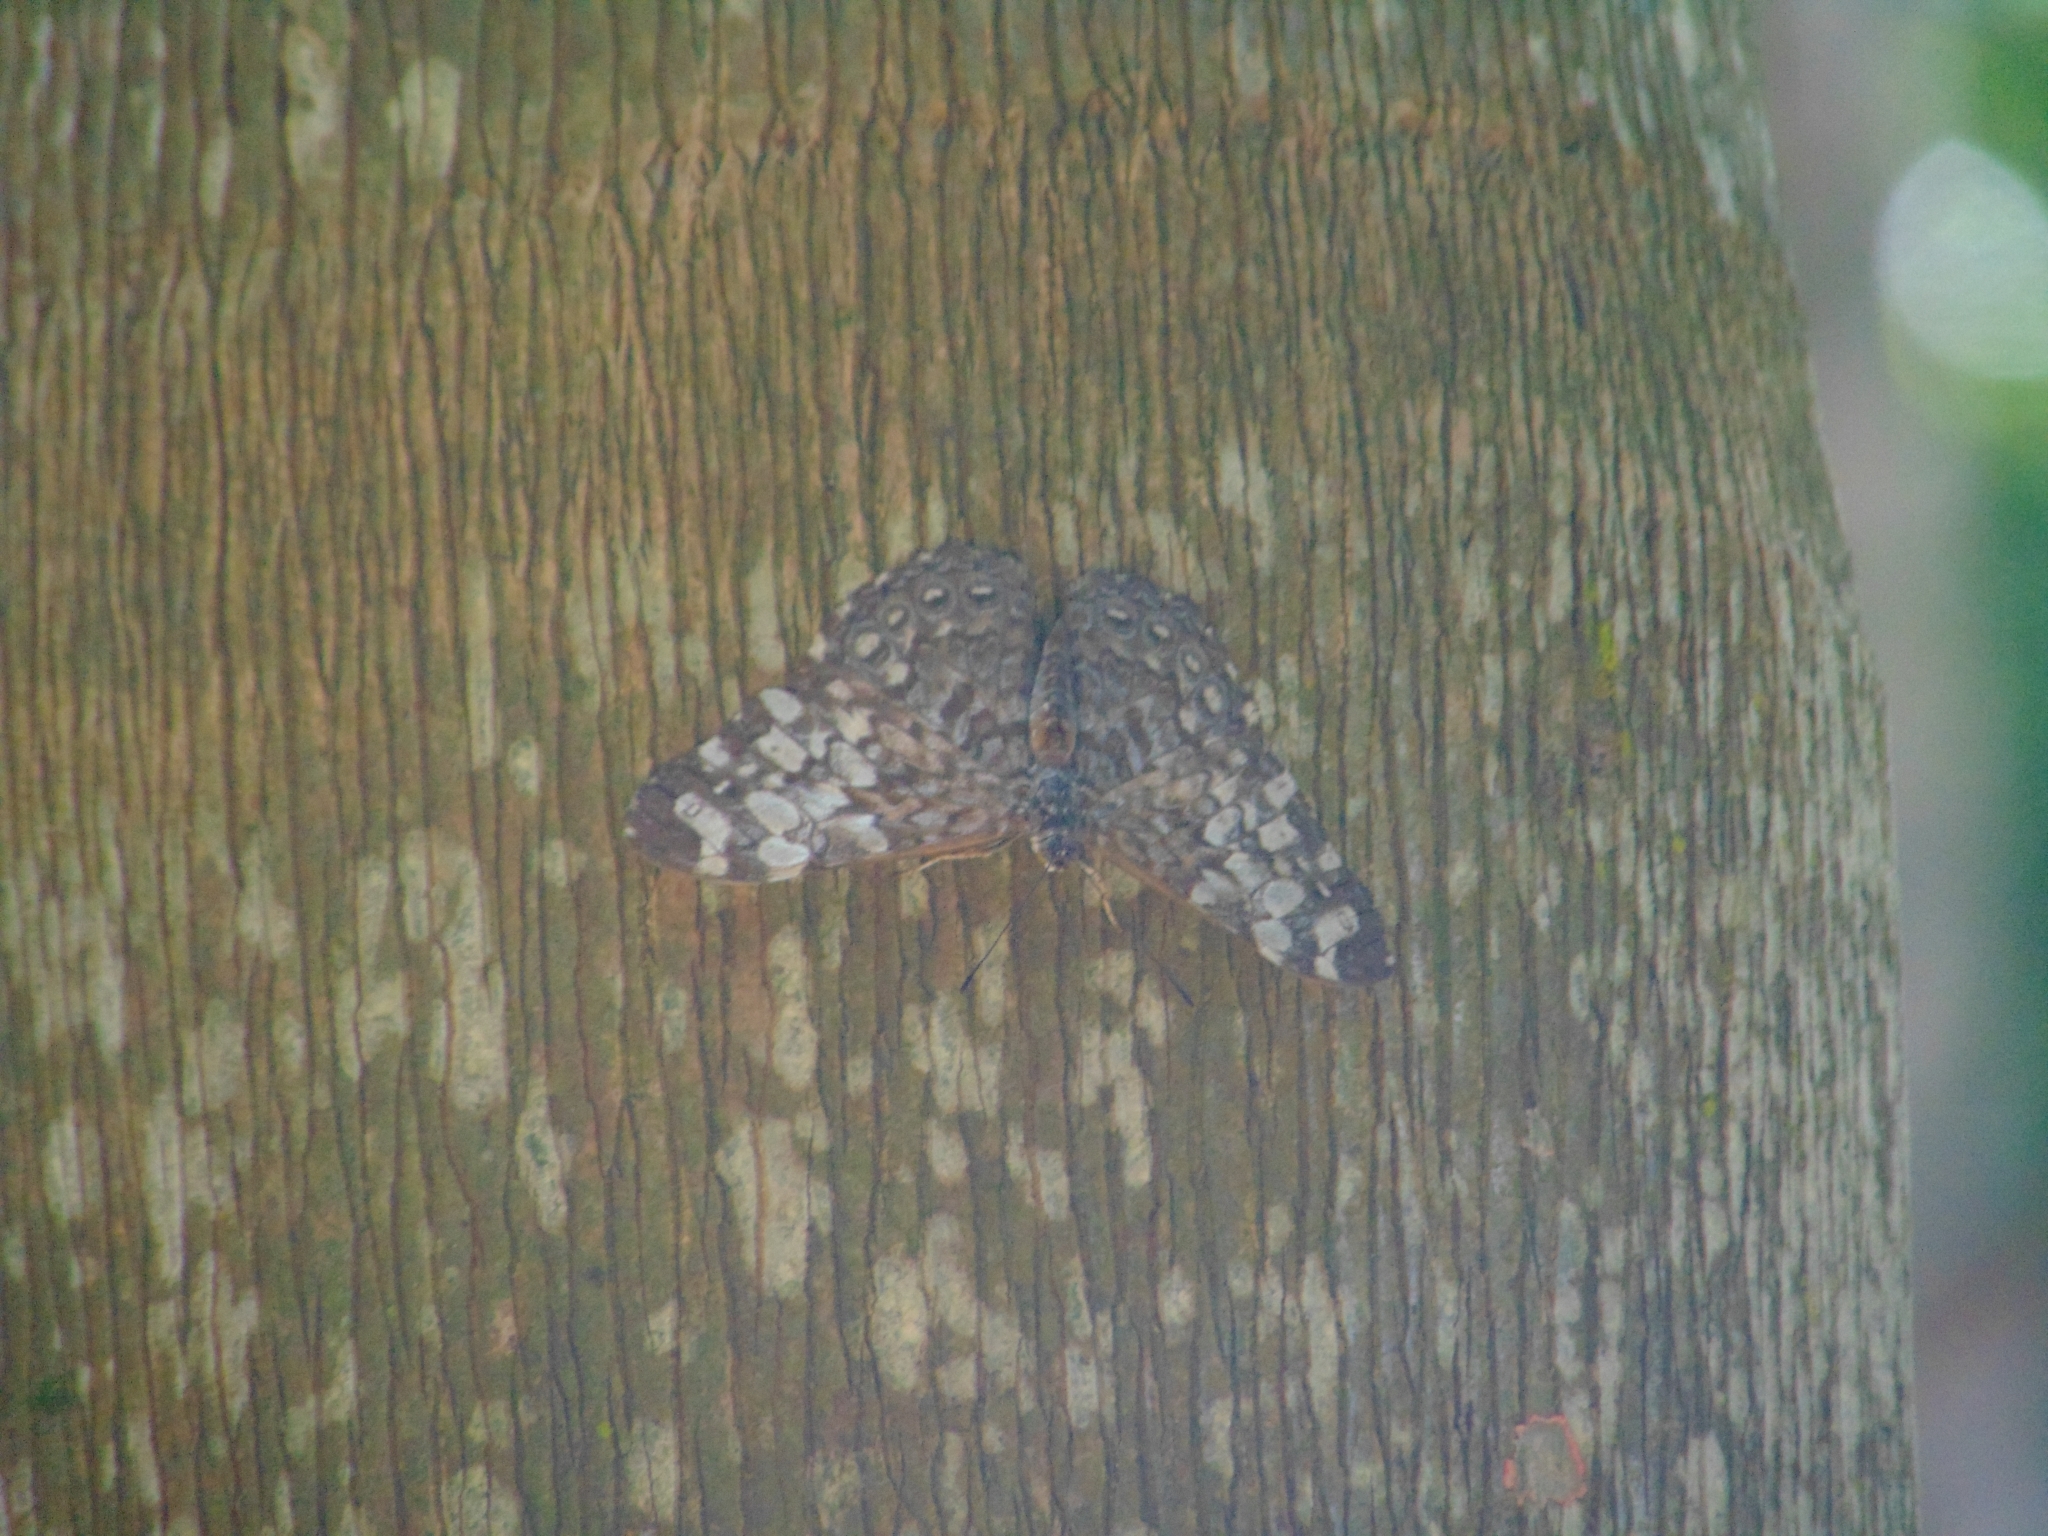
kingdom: Animalia
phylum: Arthropoda
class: Insecta
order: Lepidoptera
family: Nymphalidae
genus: Hamadryas
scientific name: Hamadryas epinome
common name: Epinome cracker
